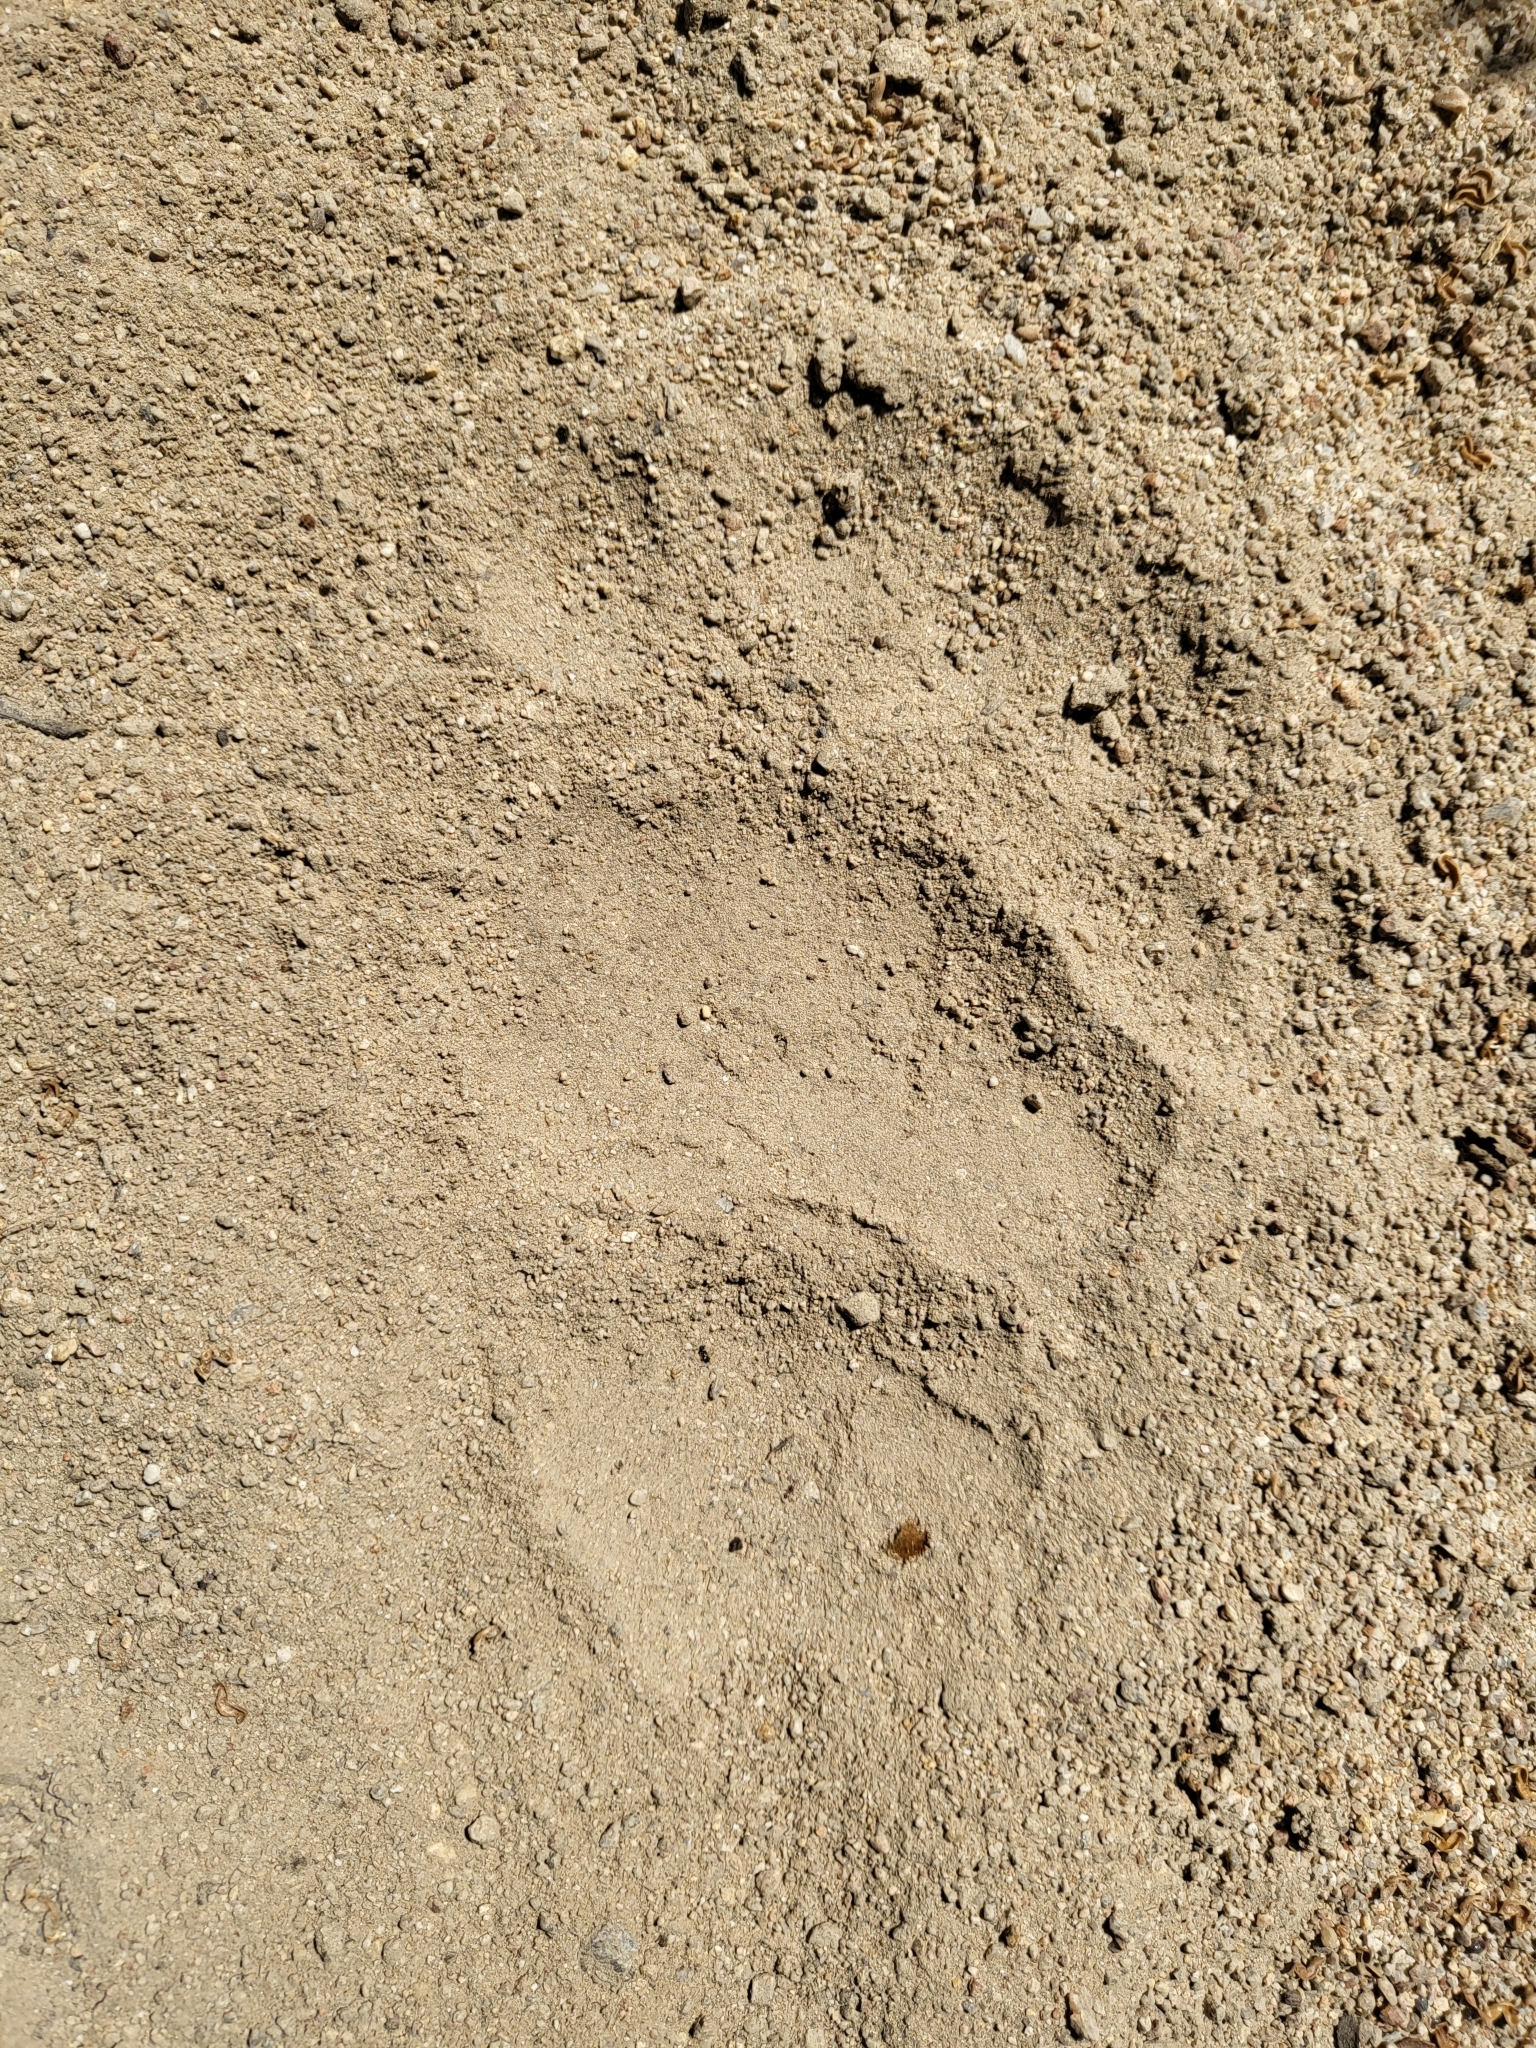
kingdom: Animalia
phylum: Chordata
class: Mammalia
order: Carnivora
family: Ursidae
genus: Ursus
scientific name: Ursus americanus
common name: American black bear
